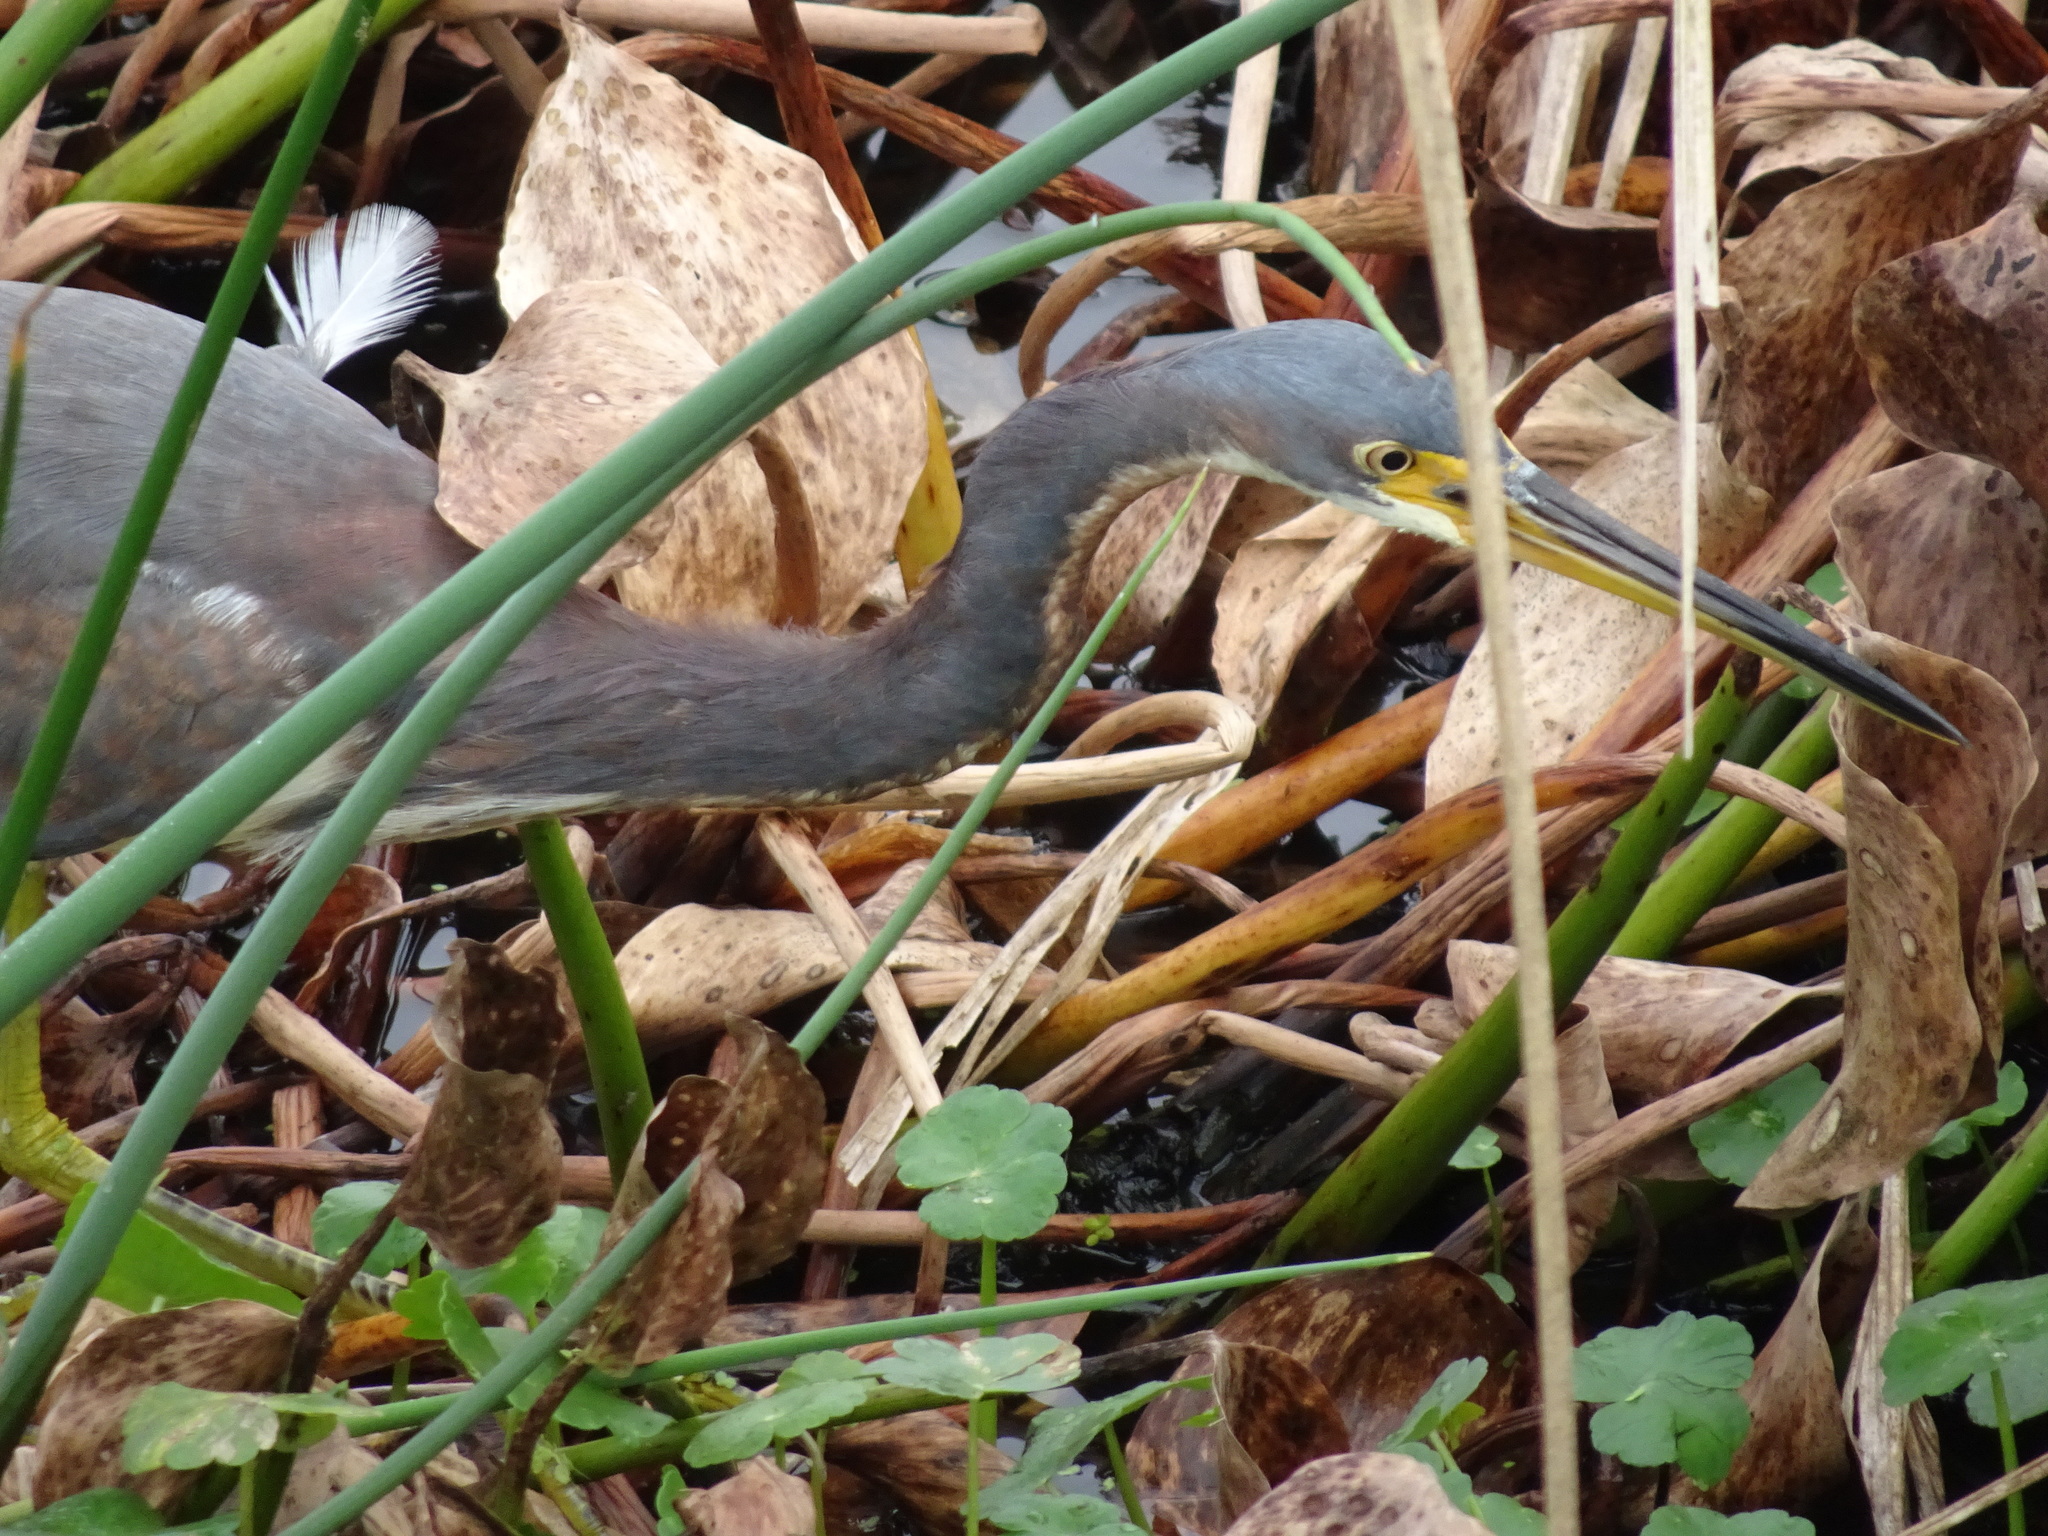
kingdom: Animalia
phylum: Chordata
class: Aves
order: Pelecaniformes
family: Ardeidae
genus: Egretta
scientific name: Egretta tricolor
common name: Tricolored heron
